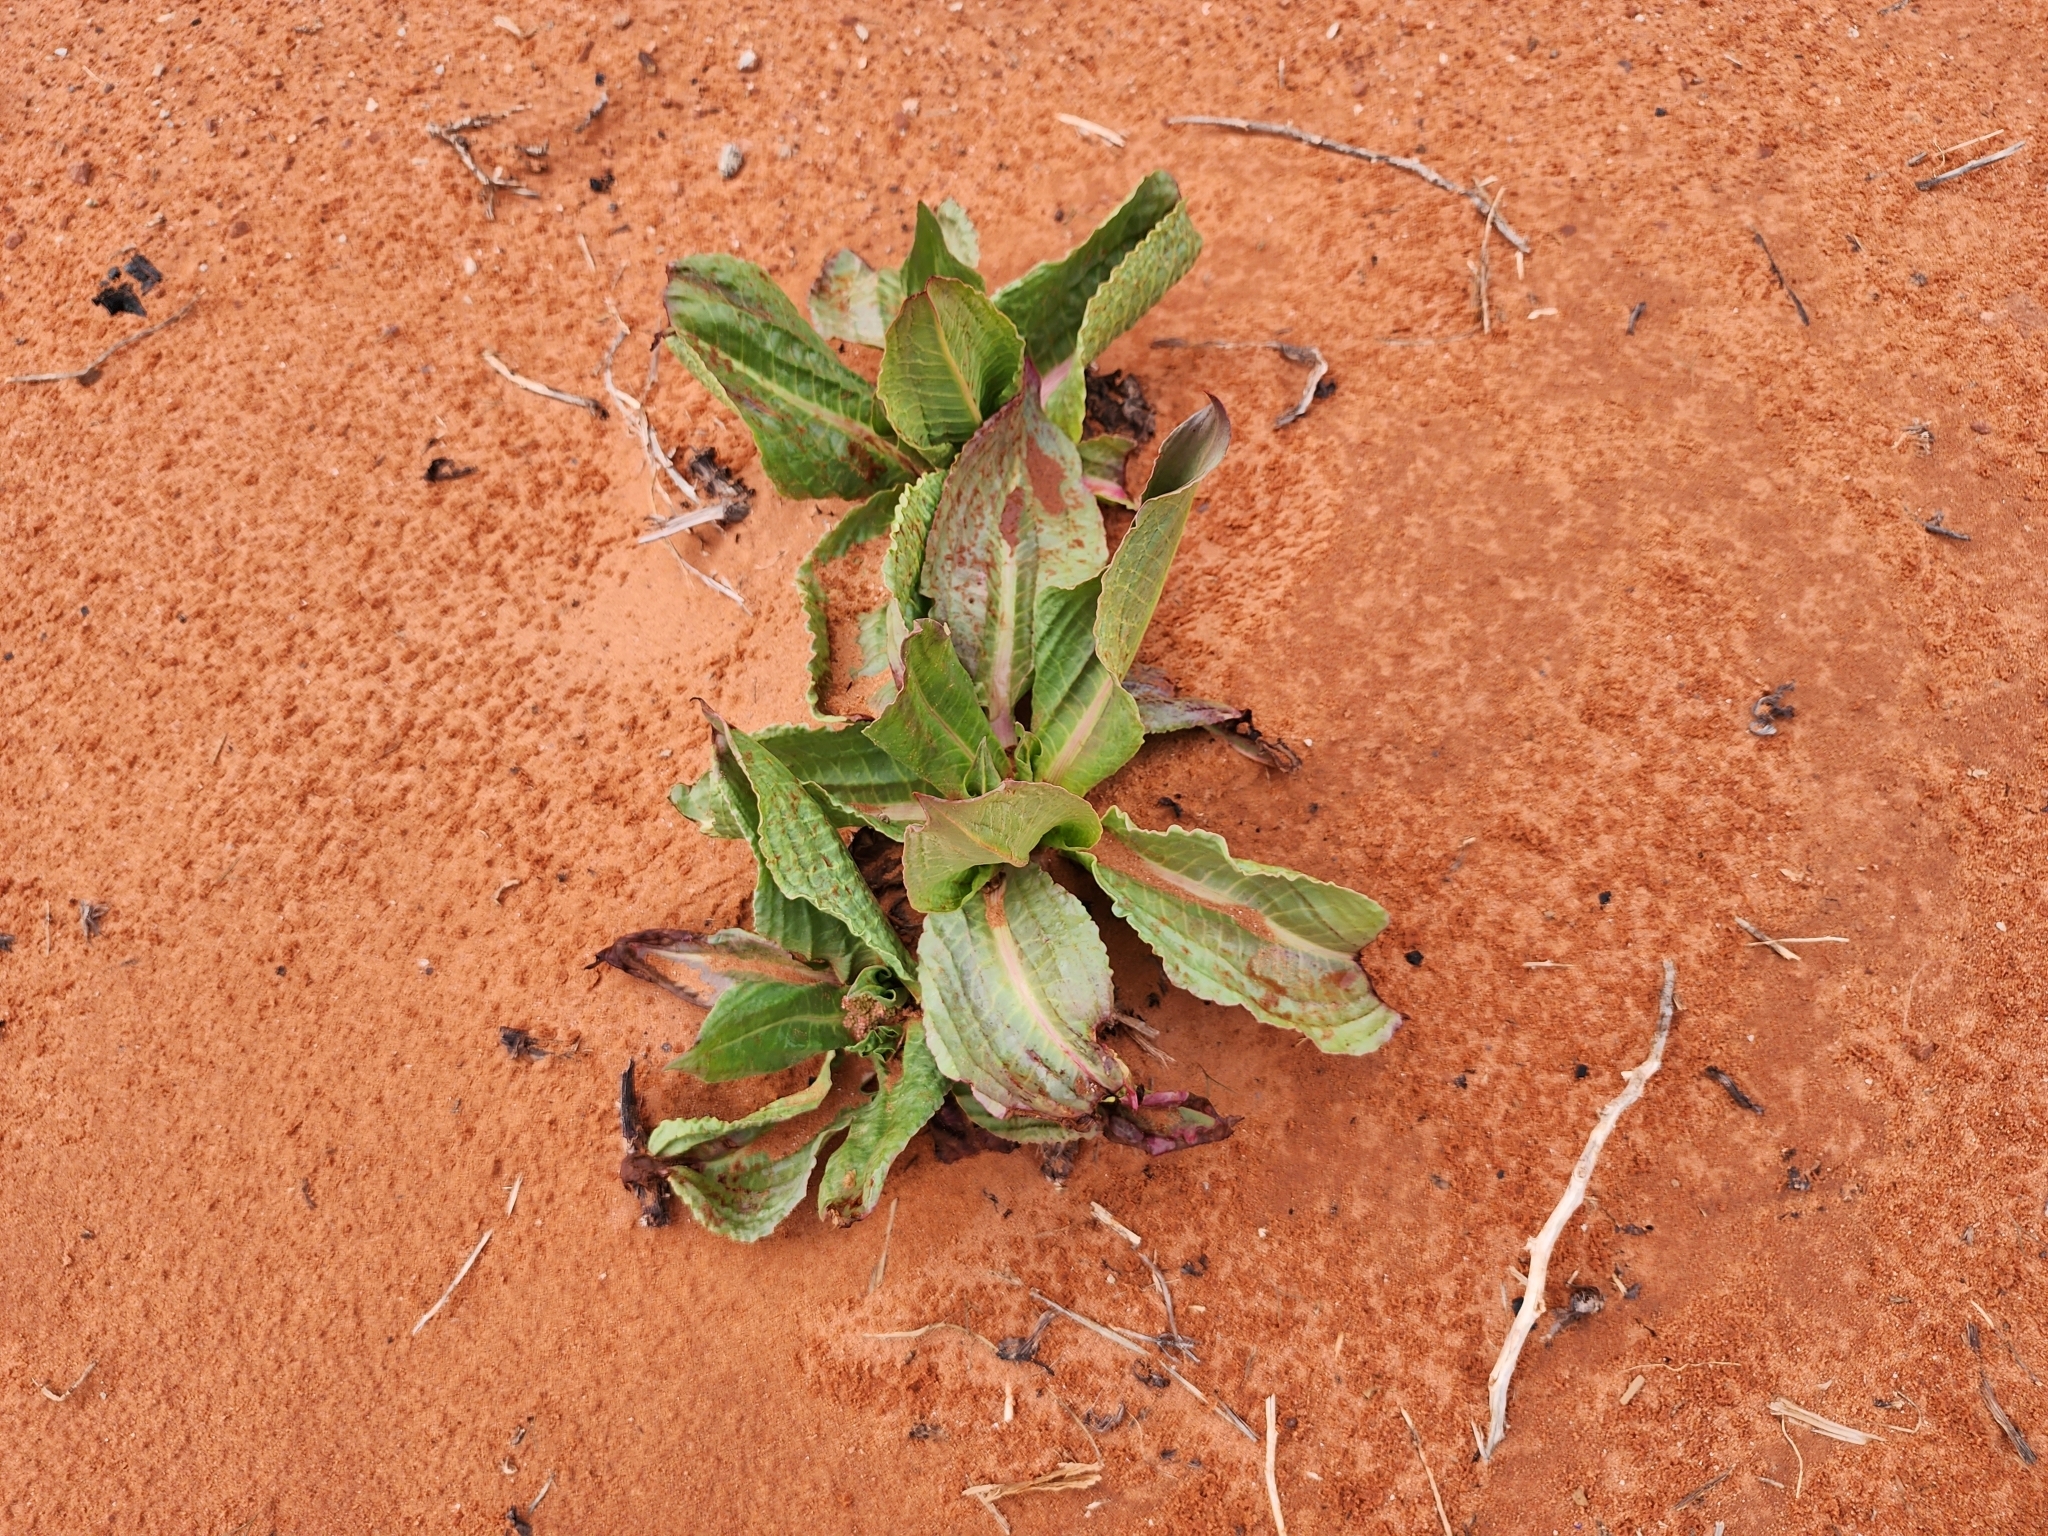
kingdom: Plantae
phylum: Tracheophyta
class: Magnoliopsida
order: Caryophyllales
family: Polygonaceae
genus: Rumex
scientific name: Rumex hymenosepalus
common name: Ganagra
